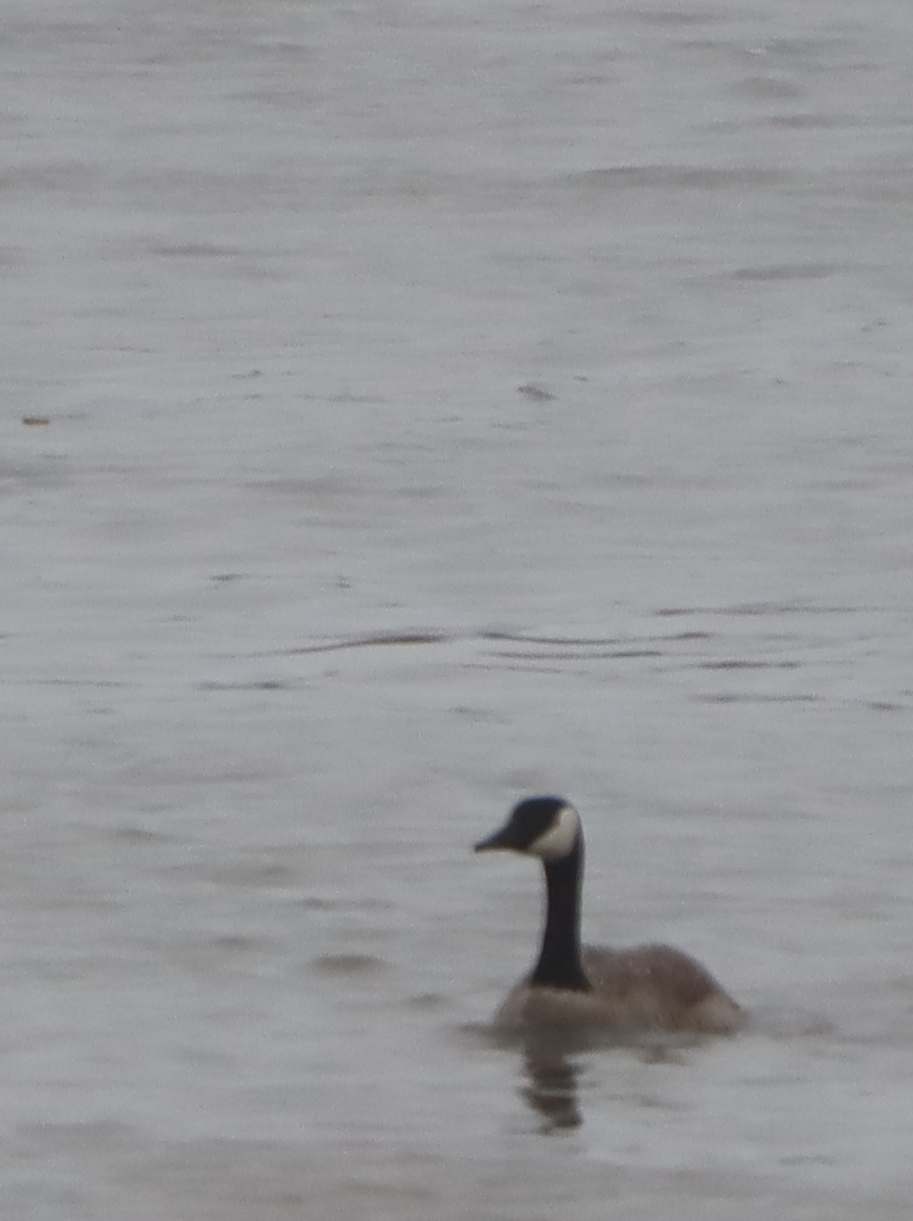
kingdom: Animalia
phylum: Chordata
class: Aves
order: Anseriformes
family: Anatidae
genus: Branta
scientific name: Branta canadensis
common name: Canada goose
